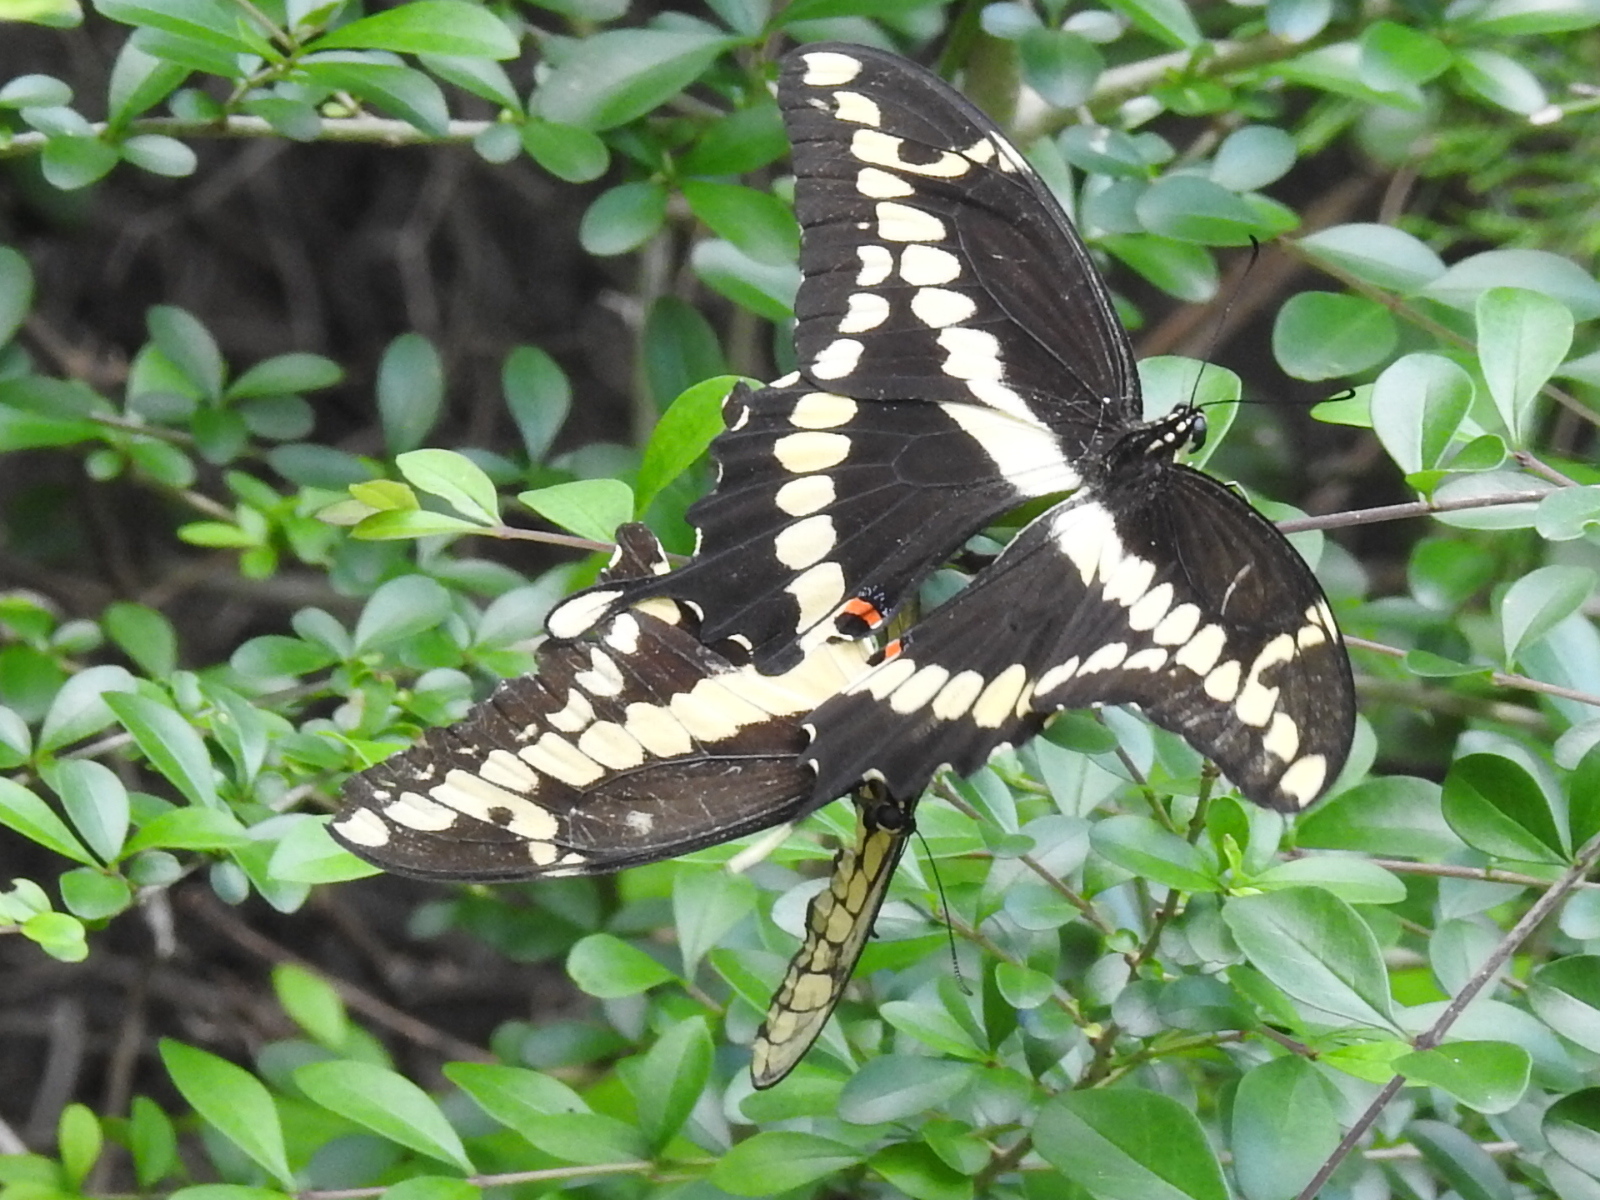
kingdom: Animalia
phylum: Arthropoda
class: Insecta
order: Lepidoptera
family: Papilionidae
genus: Papilio
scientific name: Papilio cresphontes
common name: Giant swallowtail
